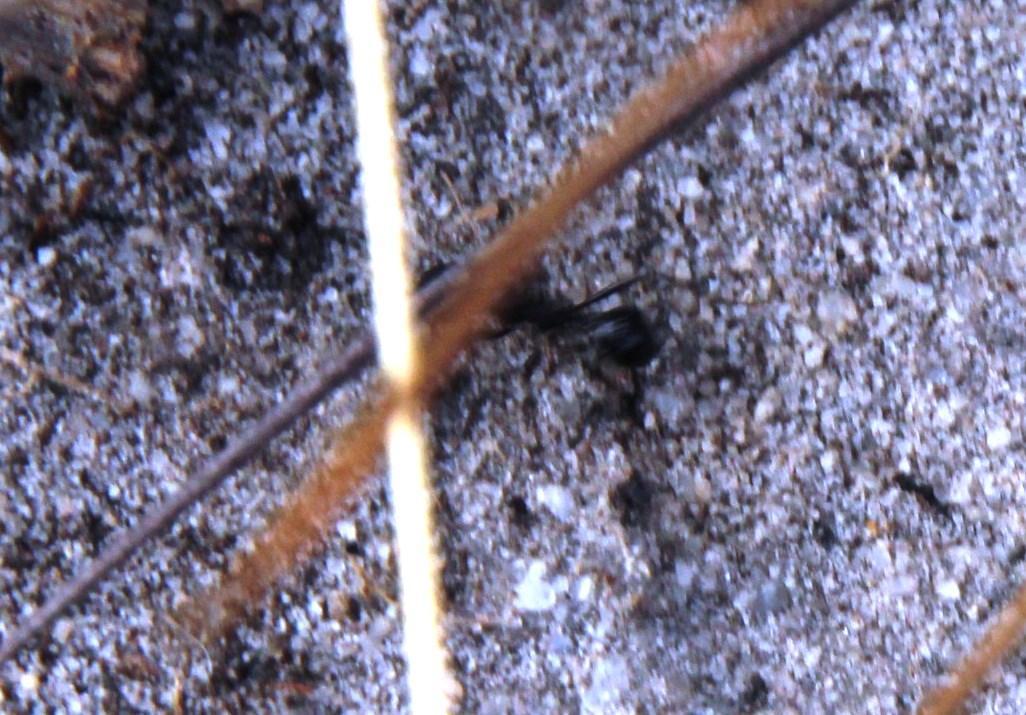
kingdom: Animalia
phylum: Arthropoda
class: Insecta
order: Hymenoptera
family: Formicidae
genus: Myrmicaria
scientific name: Myrmicaria nigra
